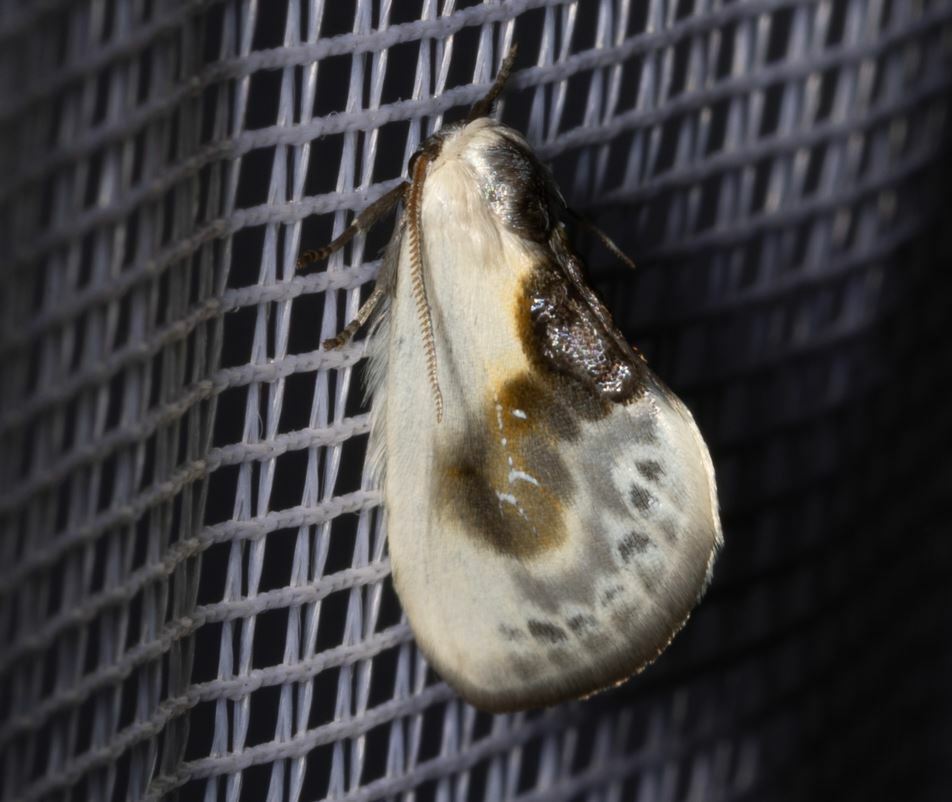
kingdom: Animalia
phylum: Arthropoda
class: Insecta
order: Lepidoptera
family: Drepanidae
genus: Cilix
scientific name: Cilix glaucata
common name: Chinese character
